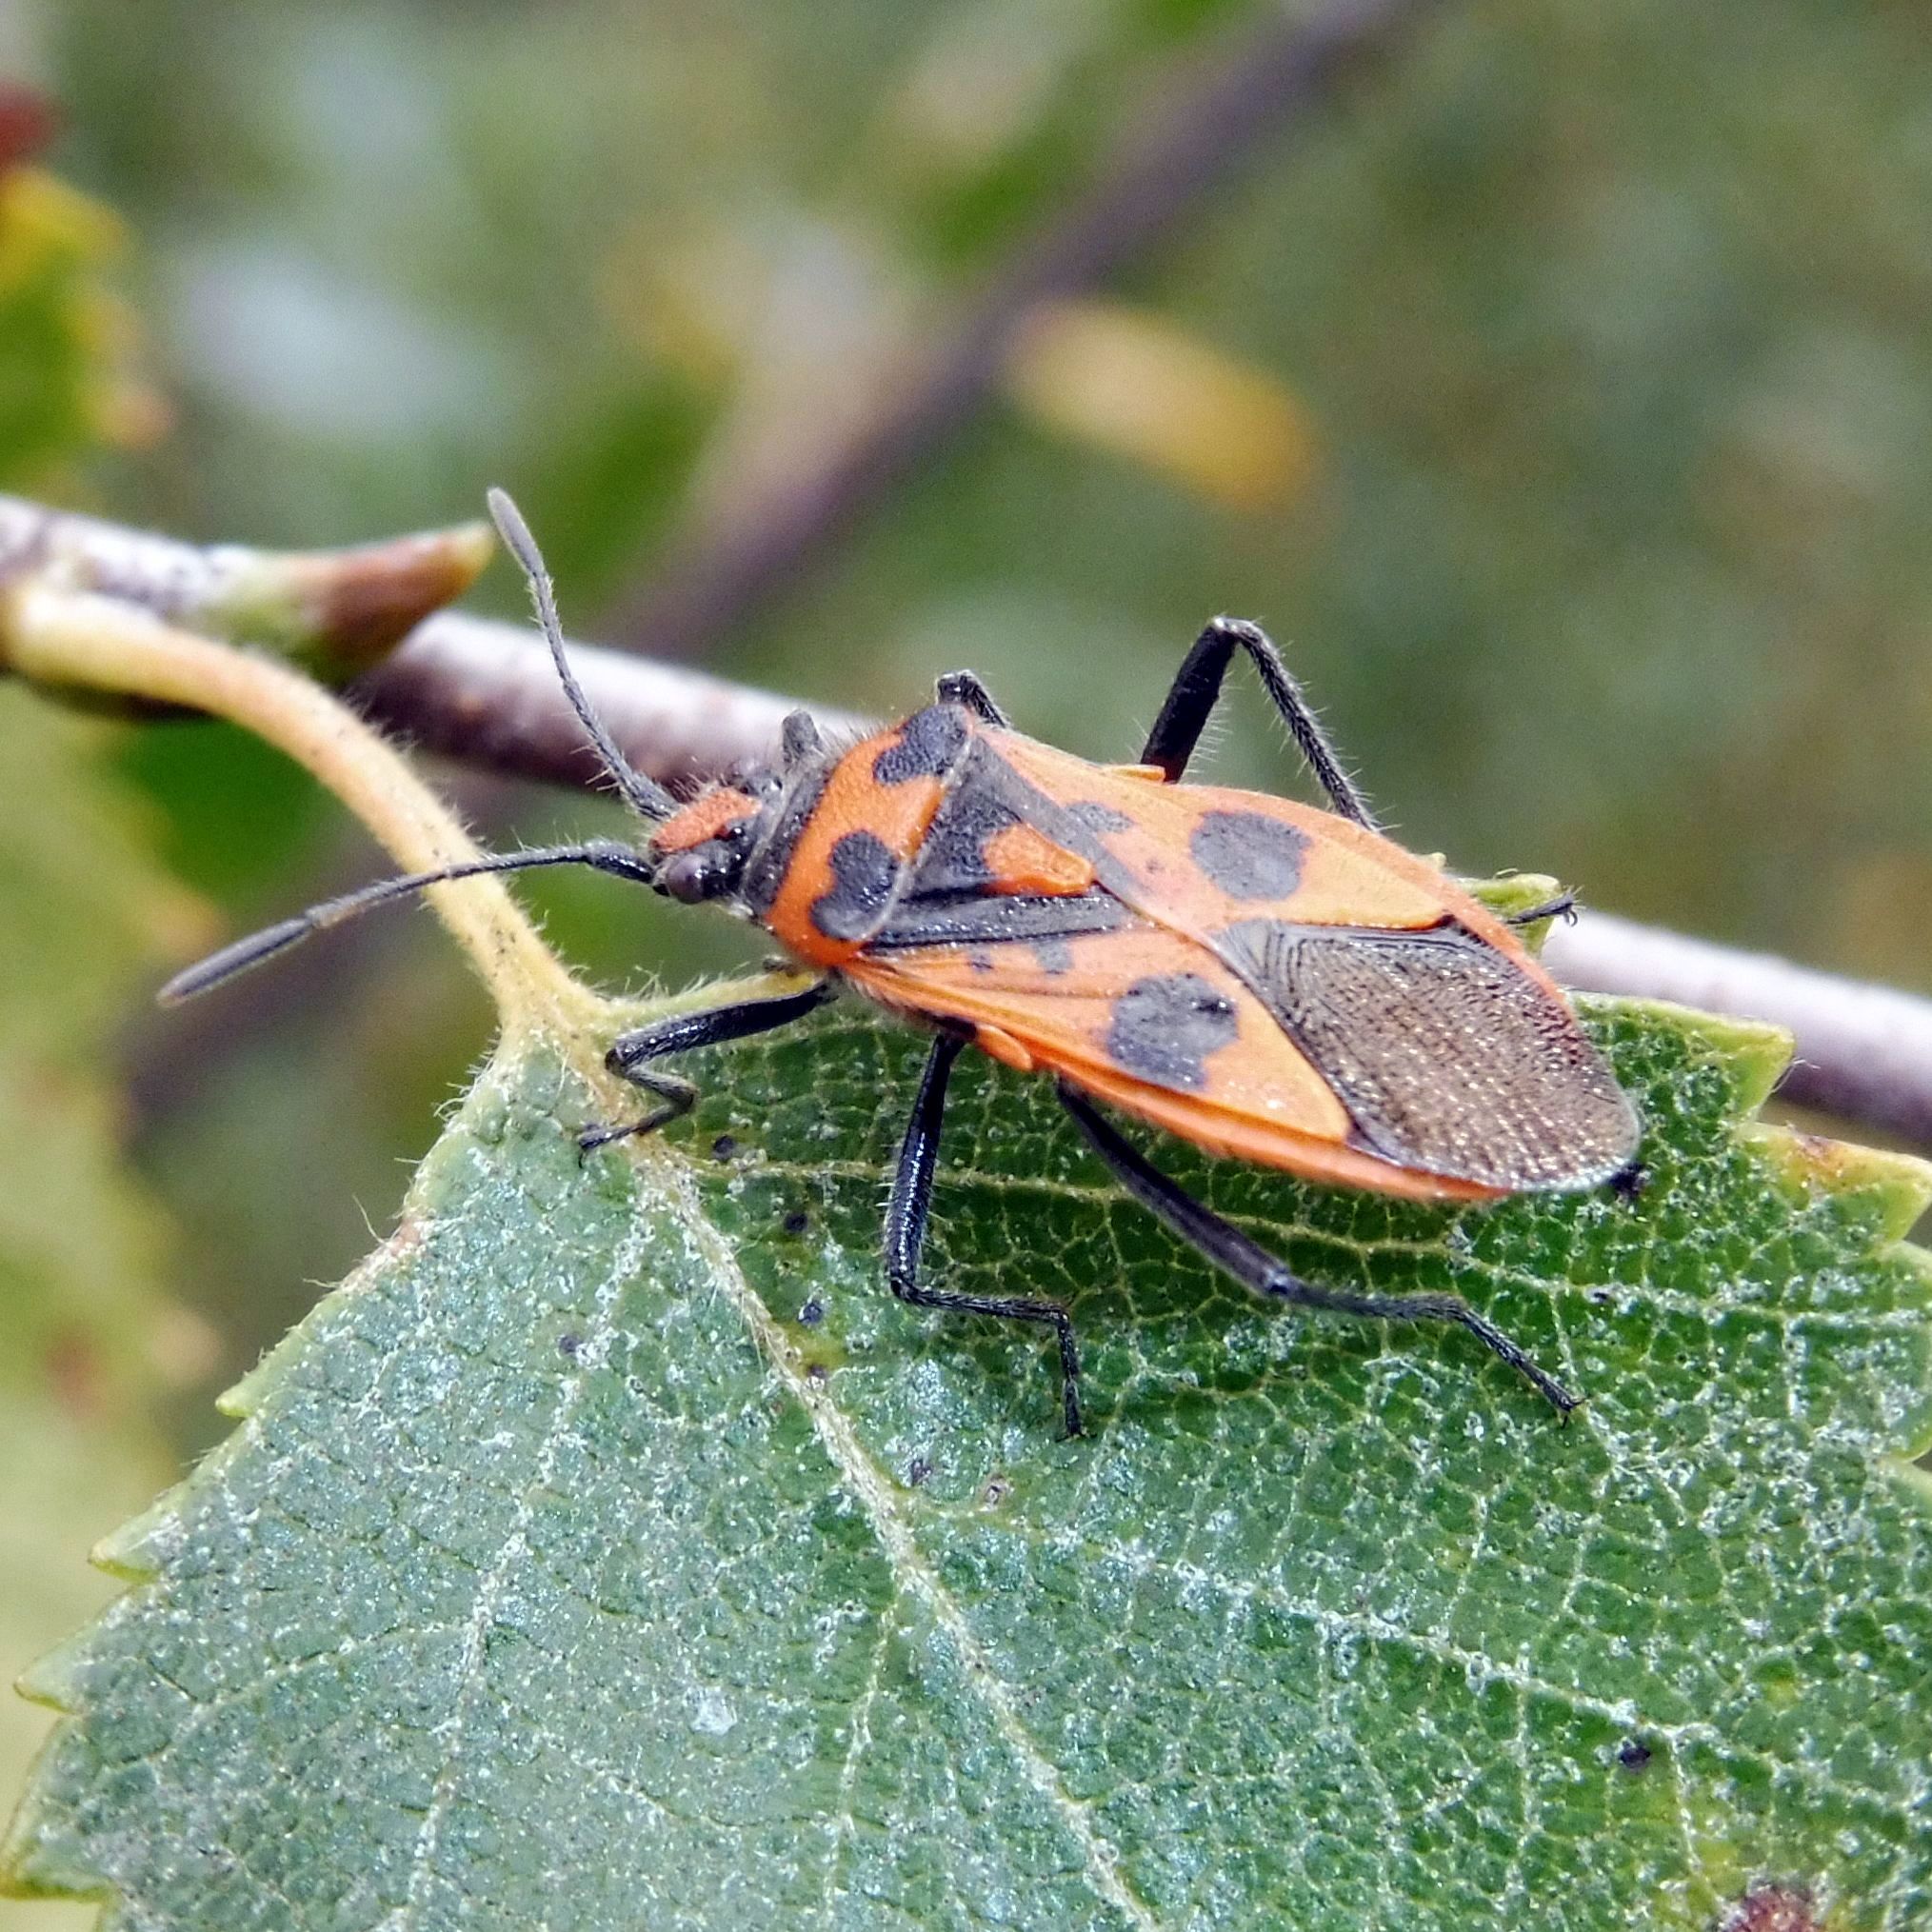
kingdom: Animalia
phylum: Arthropoda
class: Insecta
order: Hemiptera
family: Rhopalidae
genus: Corizus
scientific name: Corizus hyoscyami
